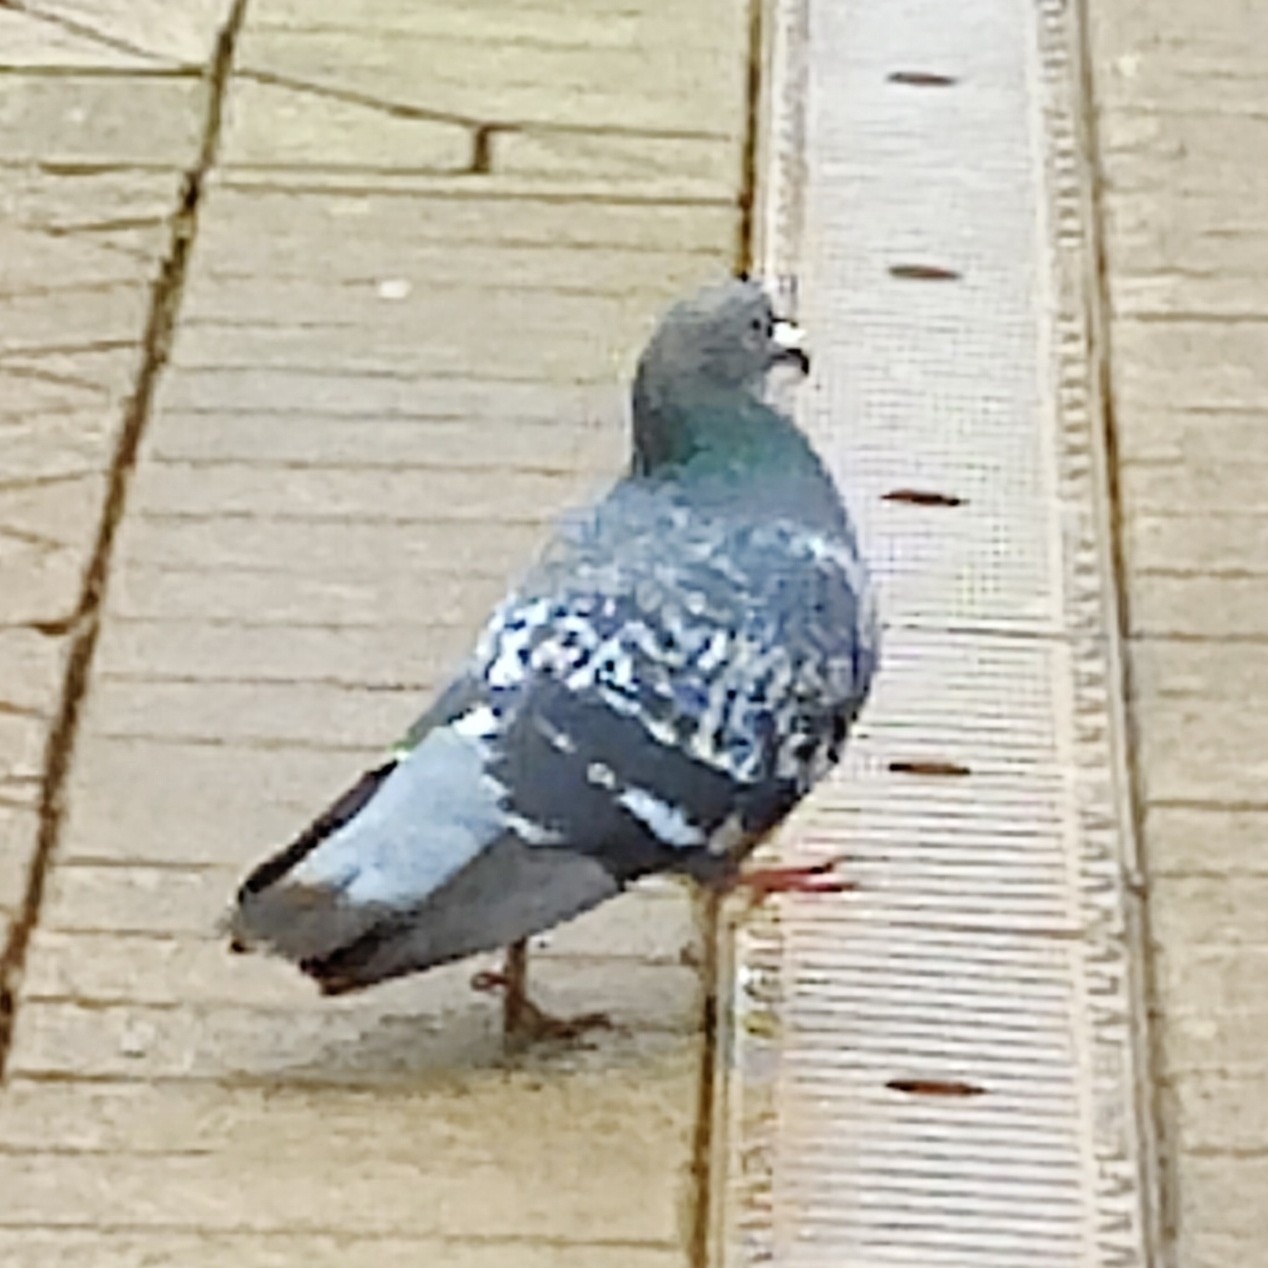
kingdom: Animalia
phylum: Chordata
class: Aves
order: Columbiformes
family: Columbidae
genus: Columba
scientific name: Columba livia
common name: Rock pigeon
